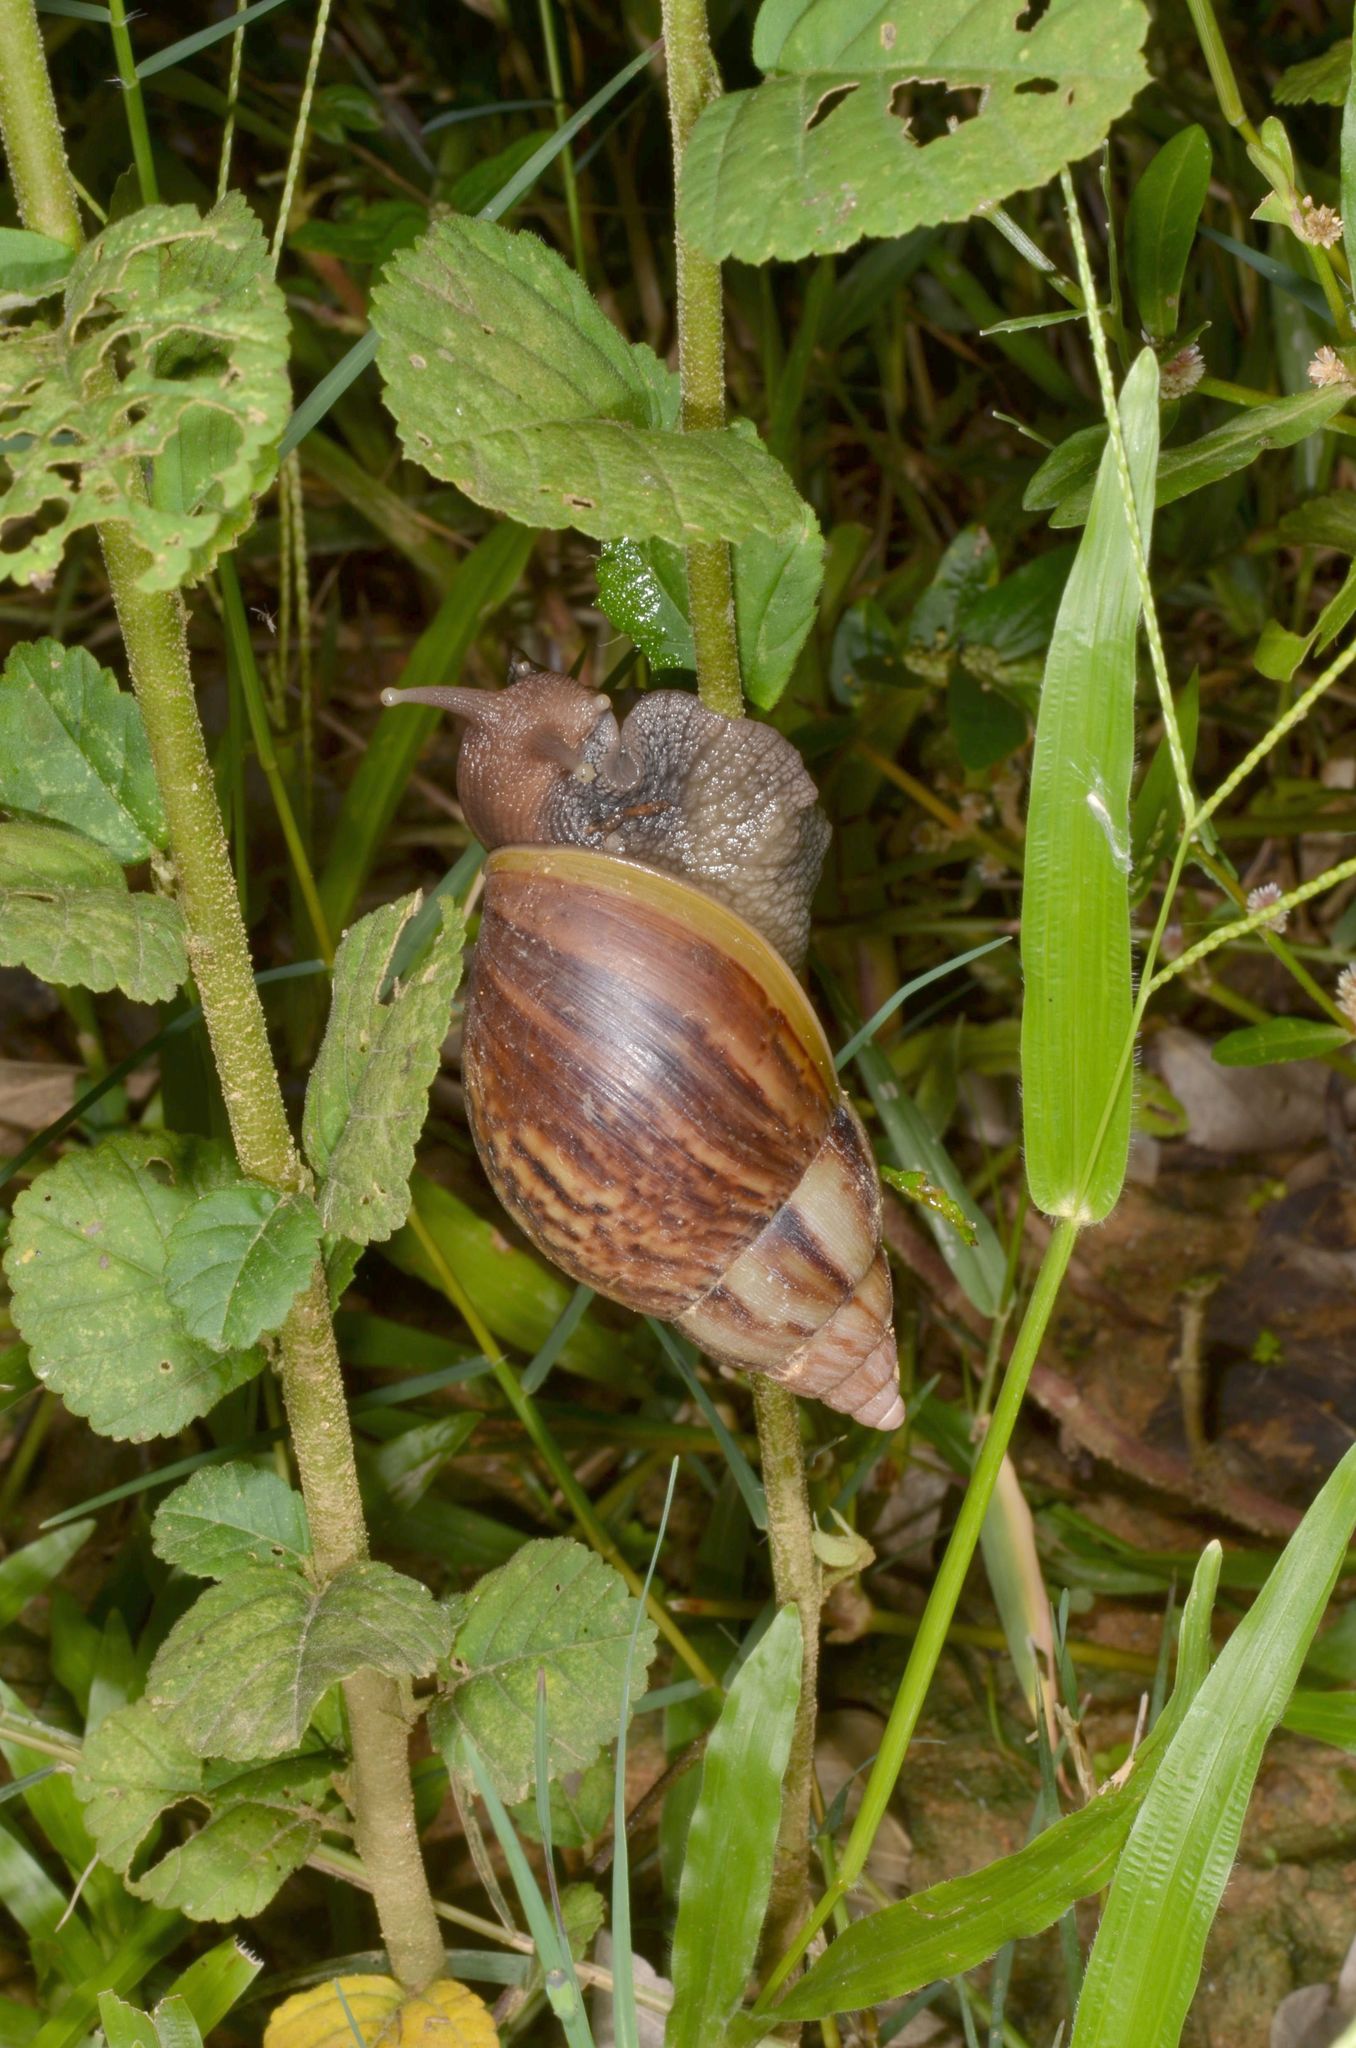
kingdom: Animalia
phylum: Mollusca
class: Gastropoda
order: Stylommatophora
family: Achatinidae
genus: Lissachatina
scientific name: Lissachatina fulica
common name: Giant african snail
